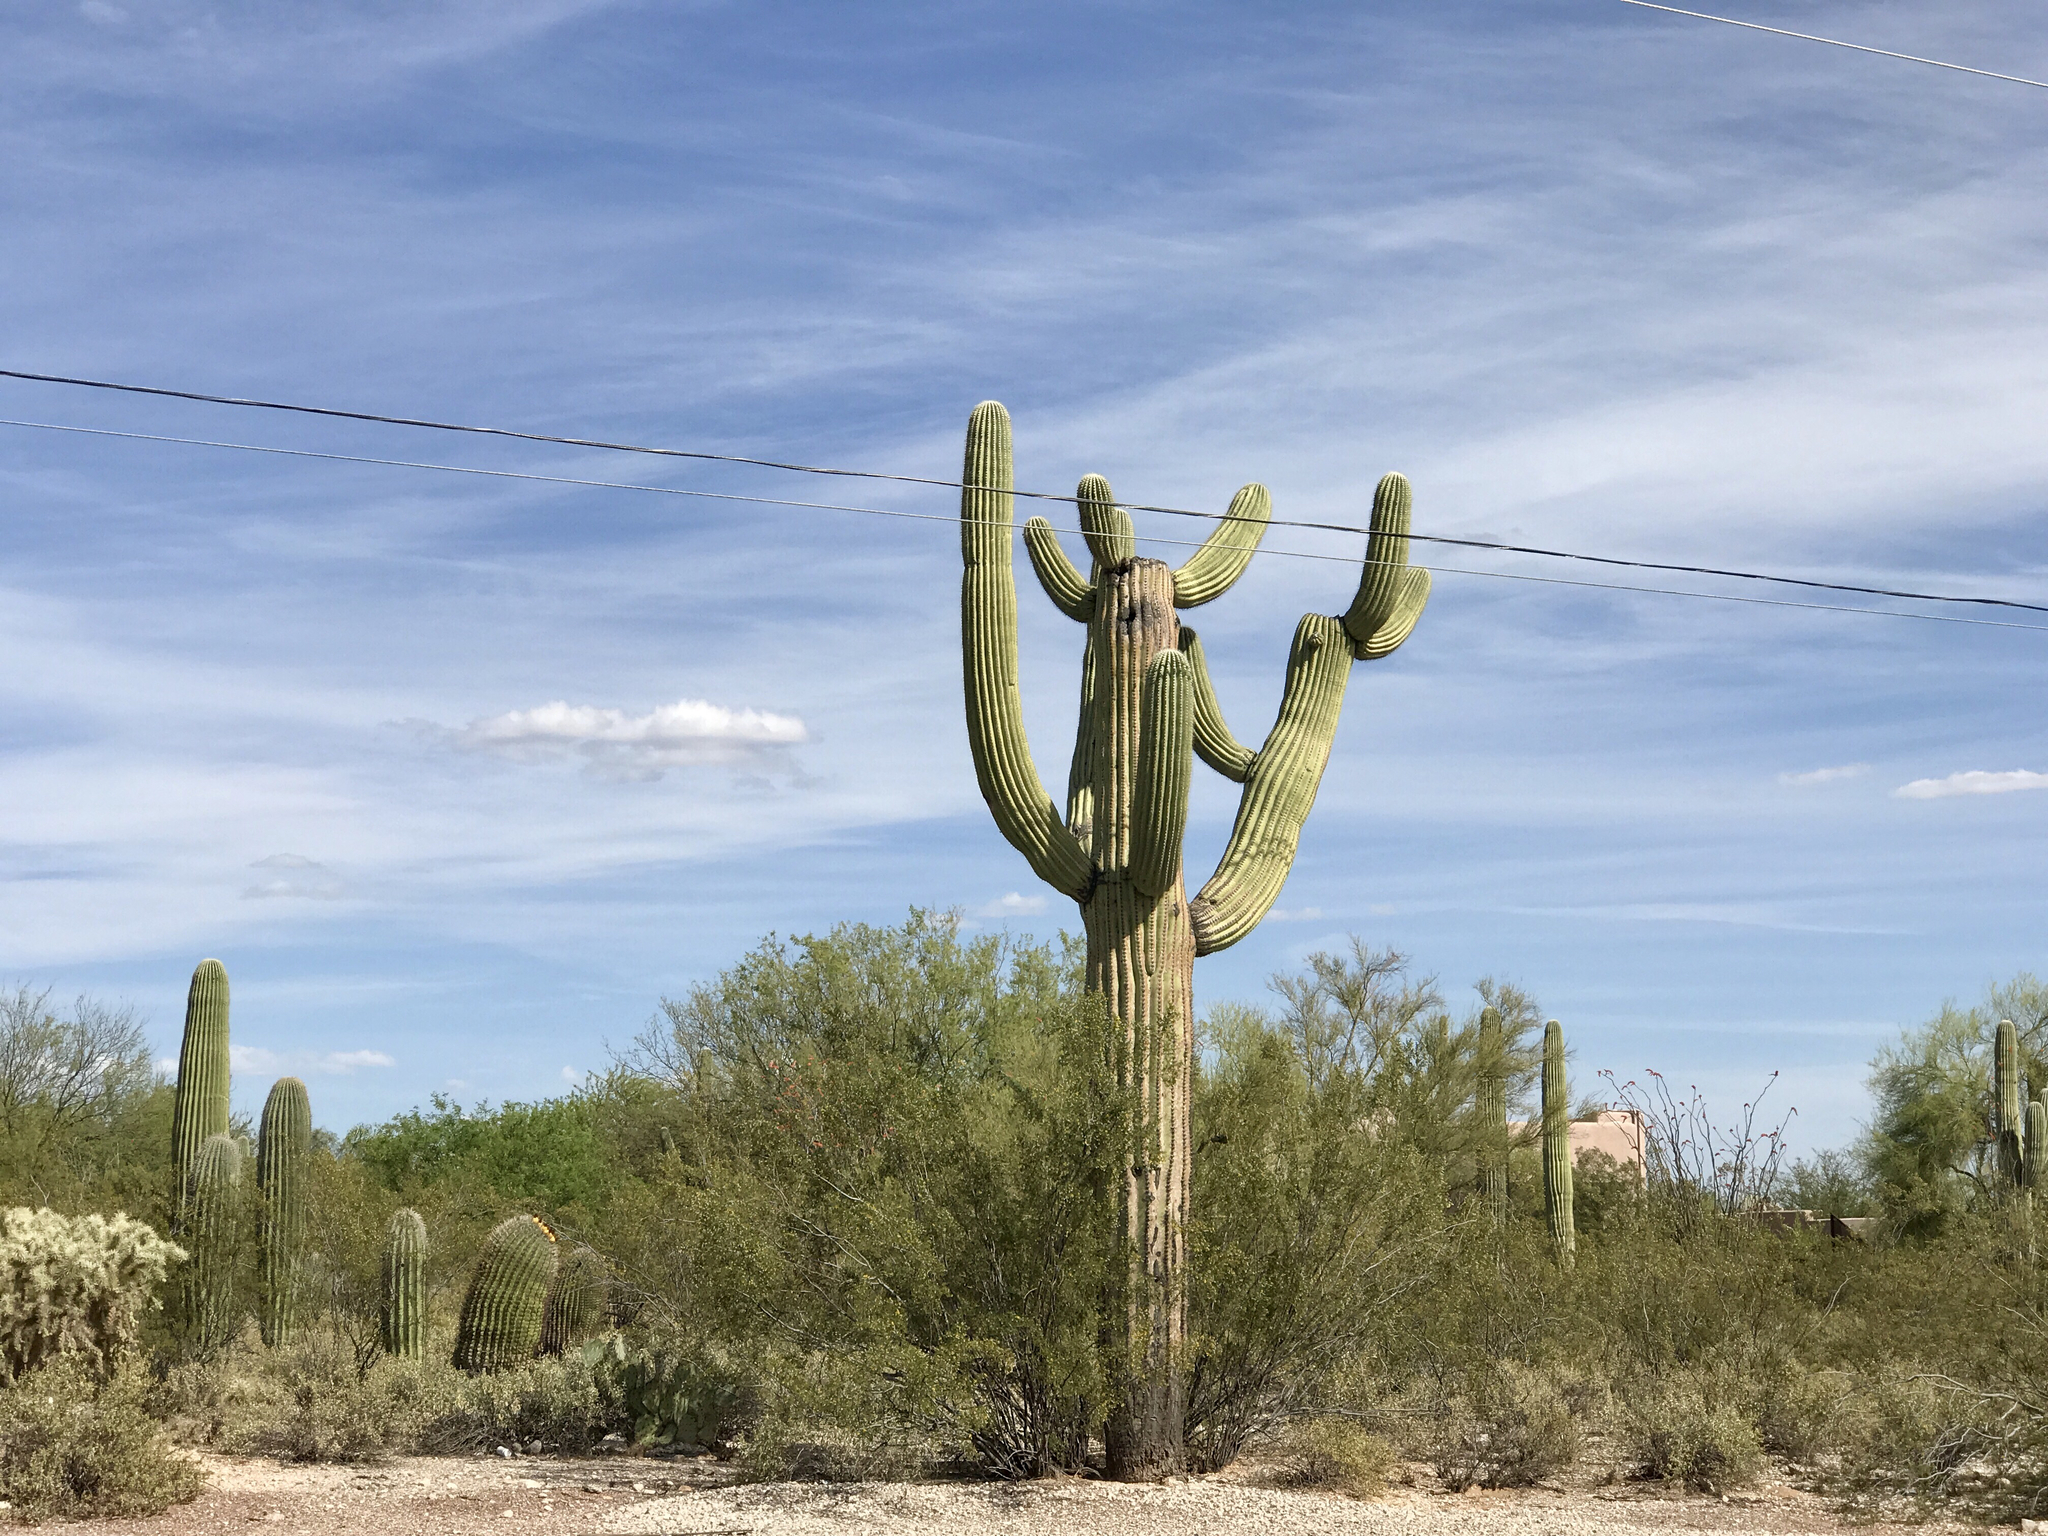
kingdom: Plantae
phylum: Tracheophyta
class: Magnoliopsida
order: Caryophyllales
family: Cactaceae
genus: Carnegiea
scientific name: Carnegiea gigantea
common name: Saguaro
